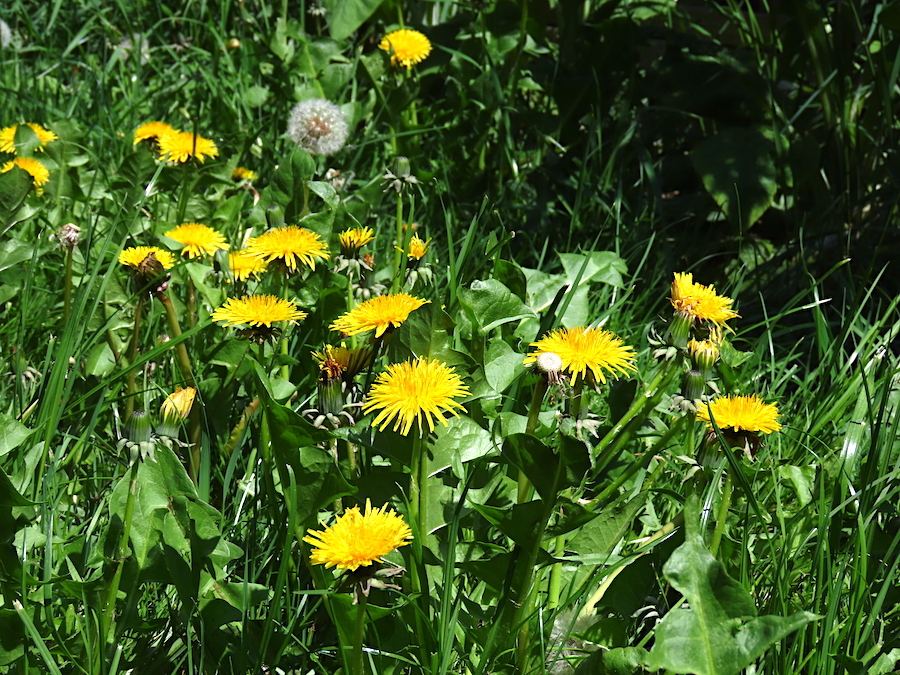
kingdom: Plantae
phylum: Tracheophyta
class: Magnoliopsida
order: Asterales
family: Asteraceae
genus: Taraxacum
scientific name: Taraxacum officinale
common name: Common dandelion
